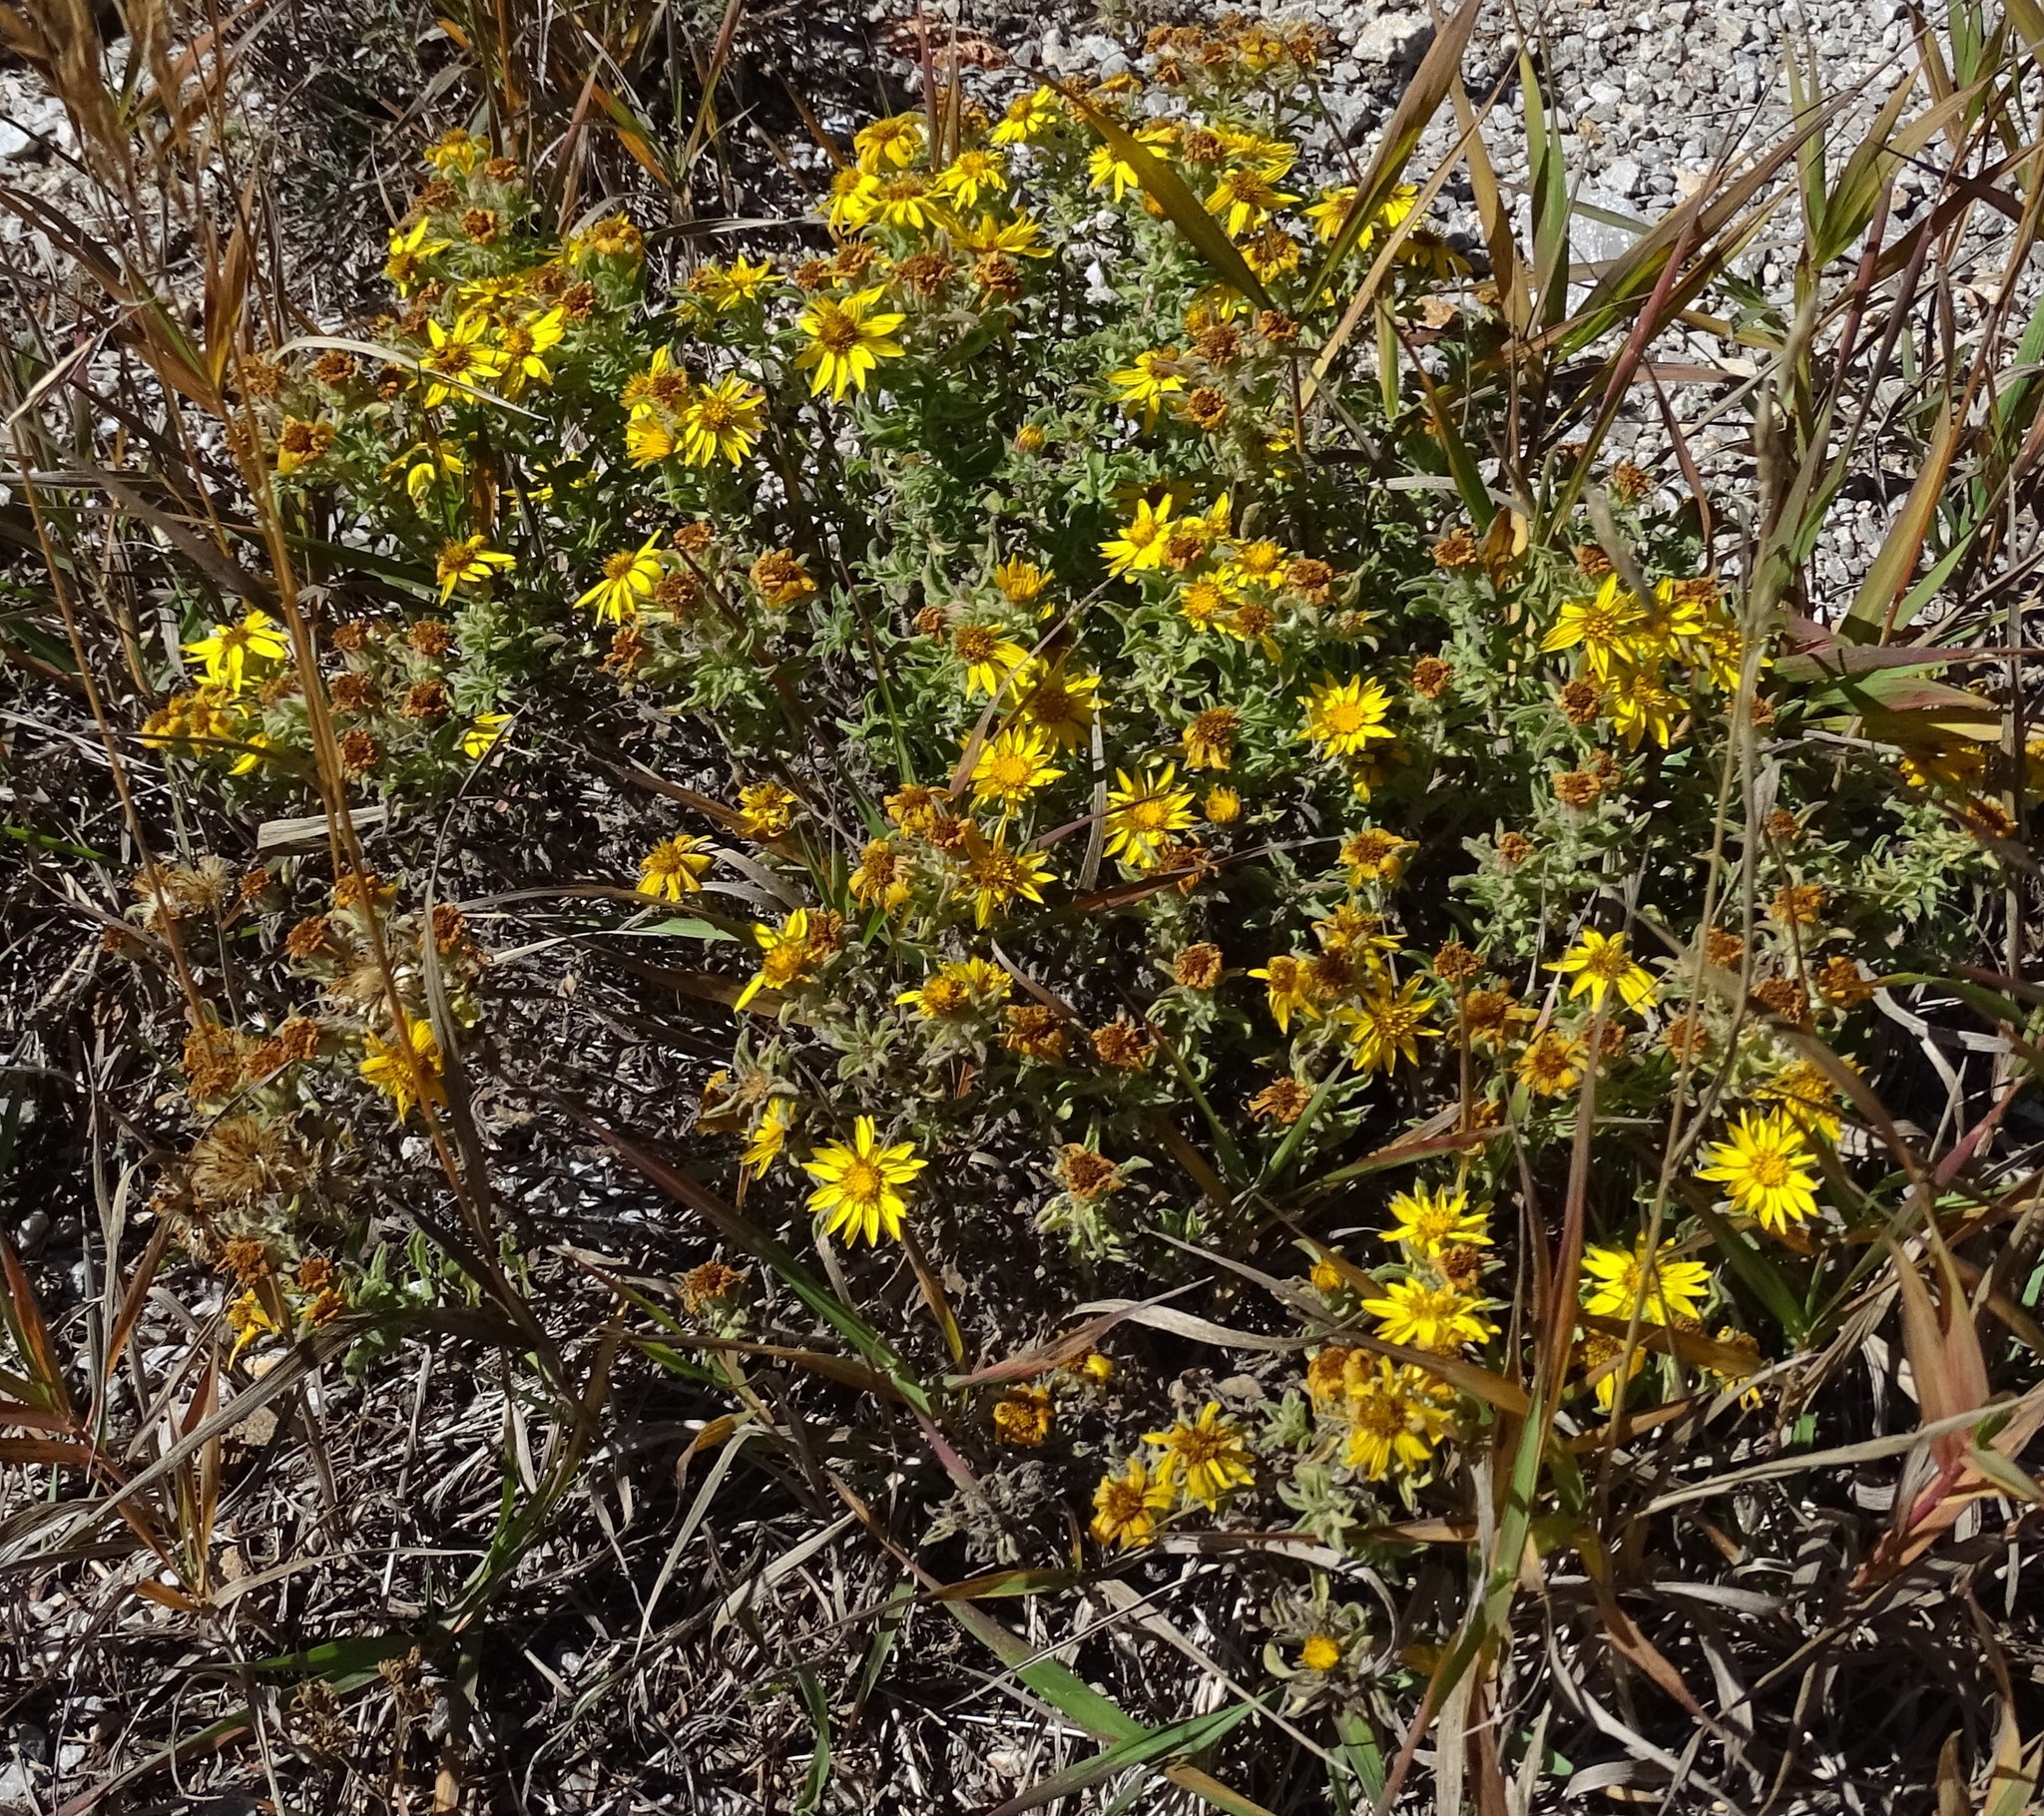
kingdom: Plantae
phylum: Tracheophyta
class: Magnoliopsida
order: Asterales
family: Asteraceae
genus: Heterotheca
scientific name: Heterotheca paniculata
